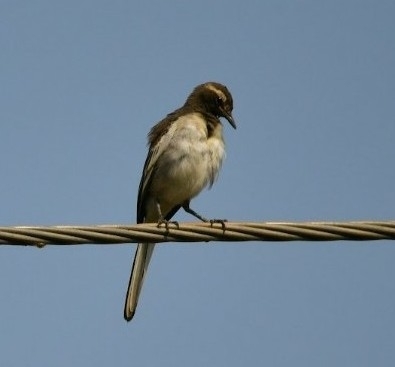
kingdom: Animalia
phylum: Chordata
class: Aves
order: Passeriformes
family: Motacillidae
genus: Motacilla
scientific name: Motacilla maderaspatensis
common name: White-browed wagtail
